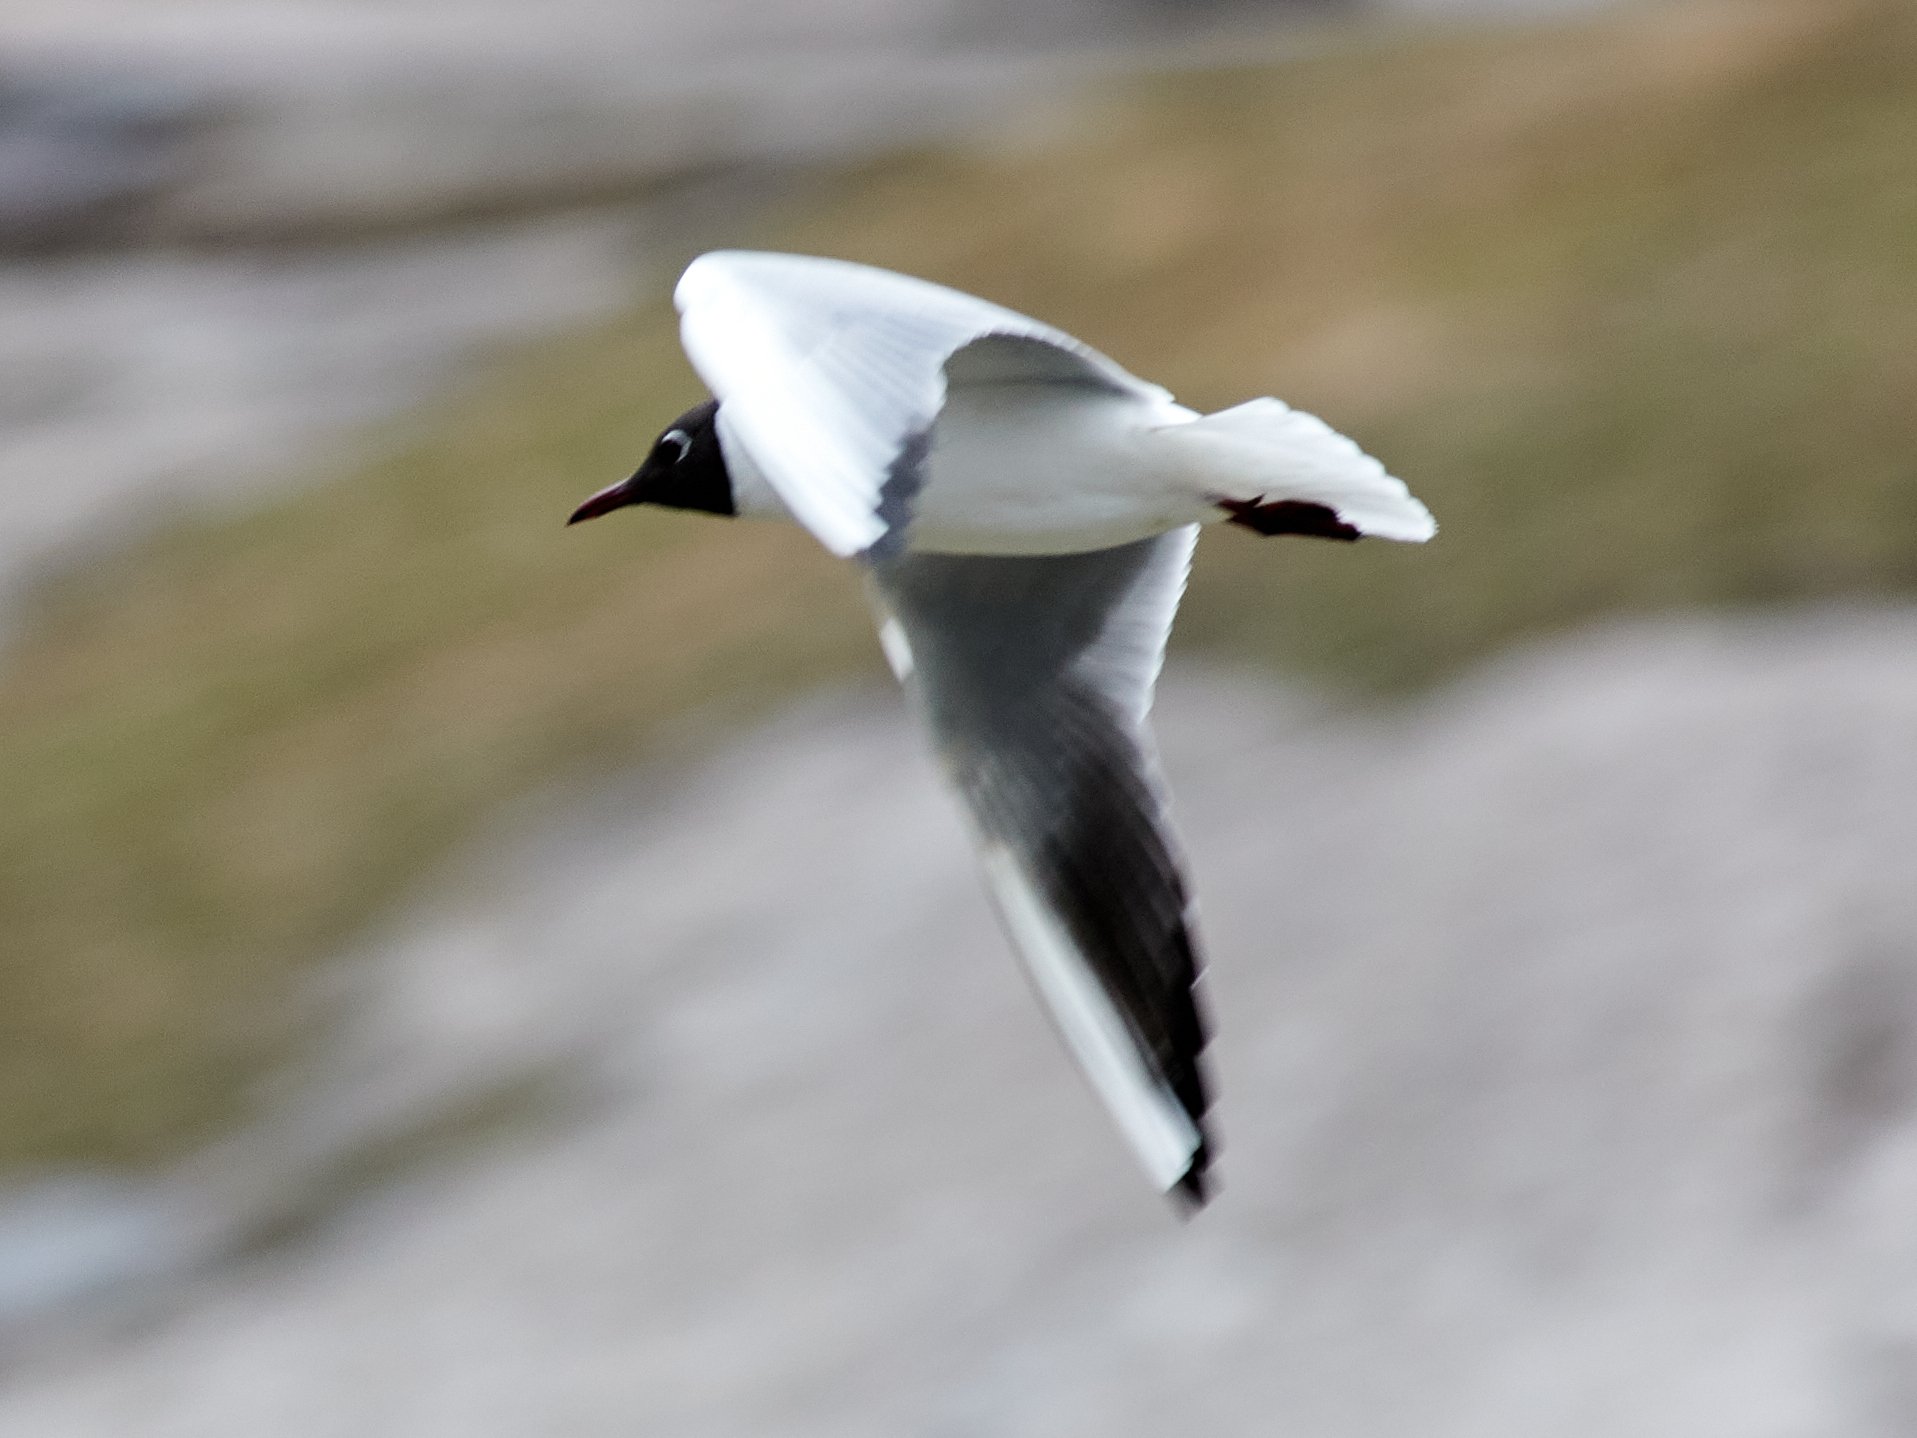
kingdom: Animalia
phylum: Chordata
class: Aves
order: Charadriiformes
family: Laridae
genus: Chroicocephalus
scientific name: Chroicocephalus ridibundus
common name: Black-headed gull
